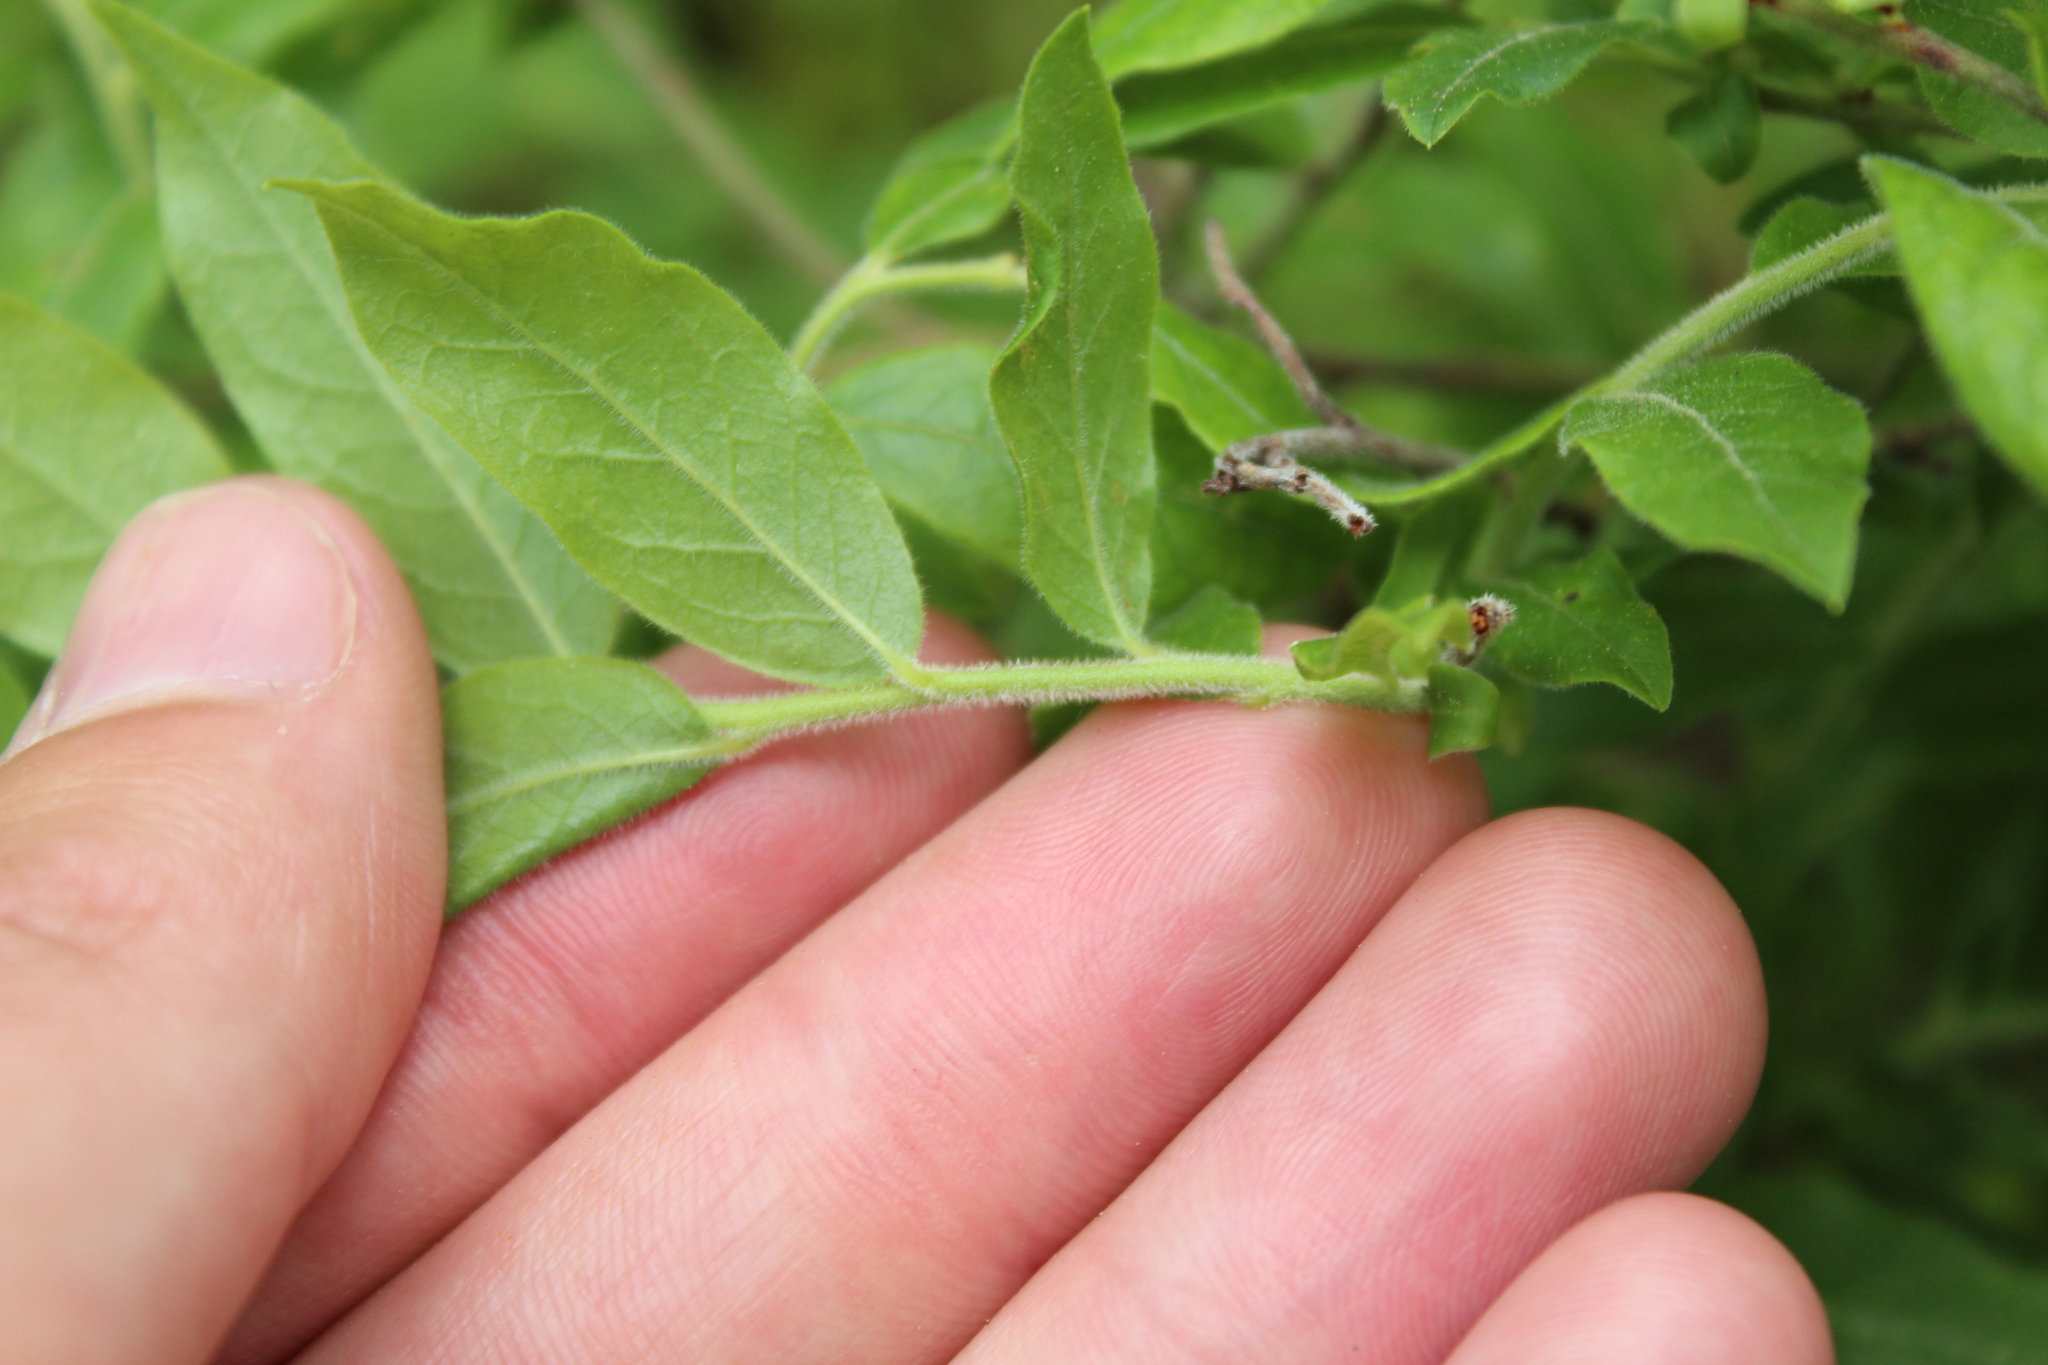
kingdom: Plantae
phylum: Tracheophyta
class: Magnoliopsida
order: Ericales
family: Ericaceae
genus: Vaccinium
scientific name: Vaccinium myrtilloides
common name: Canada blueberry
